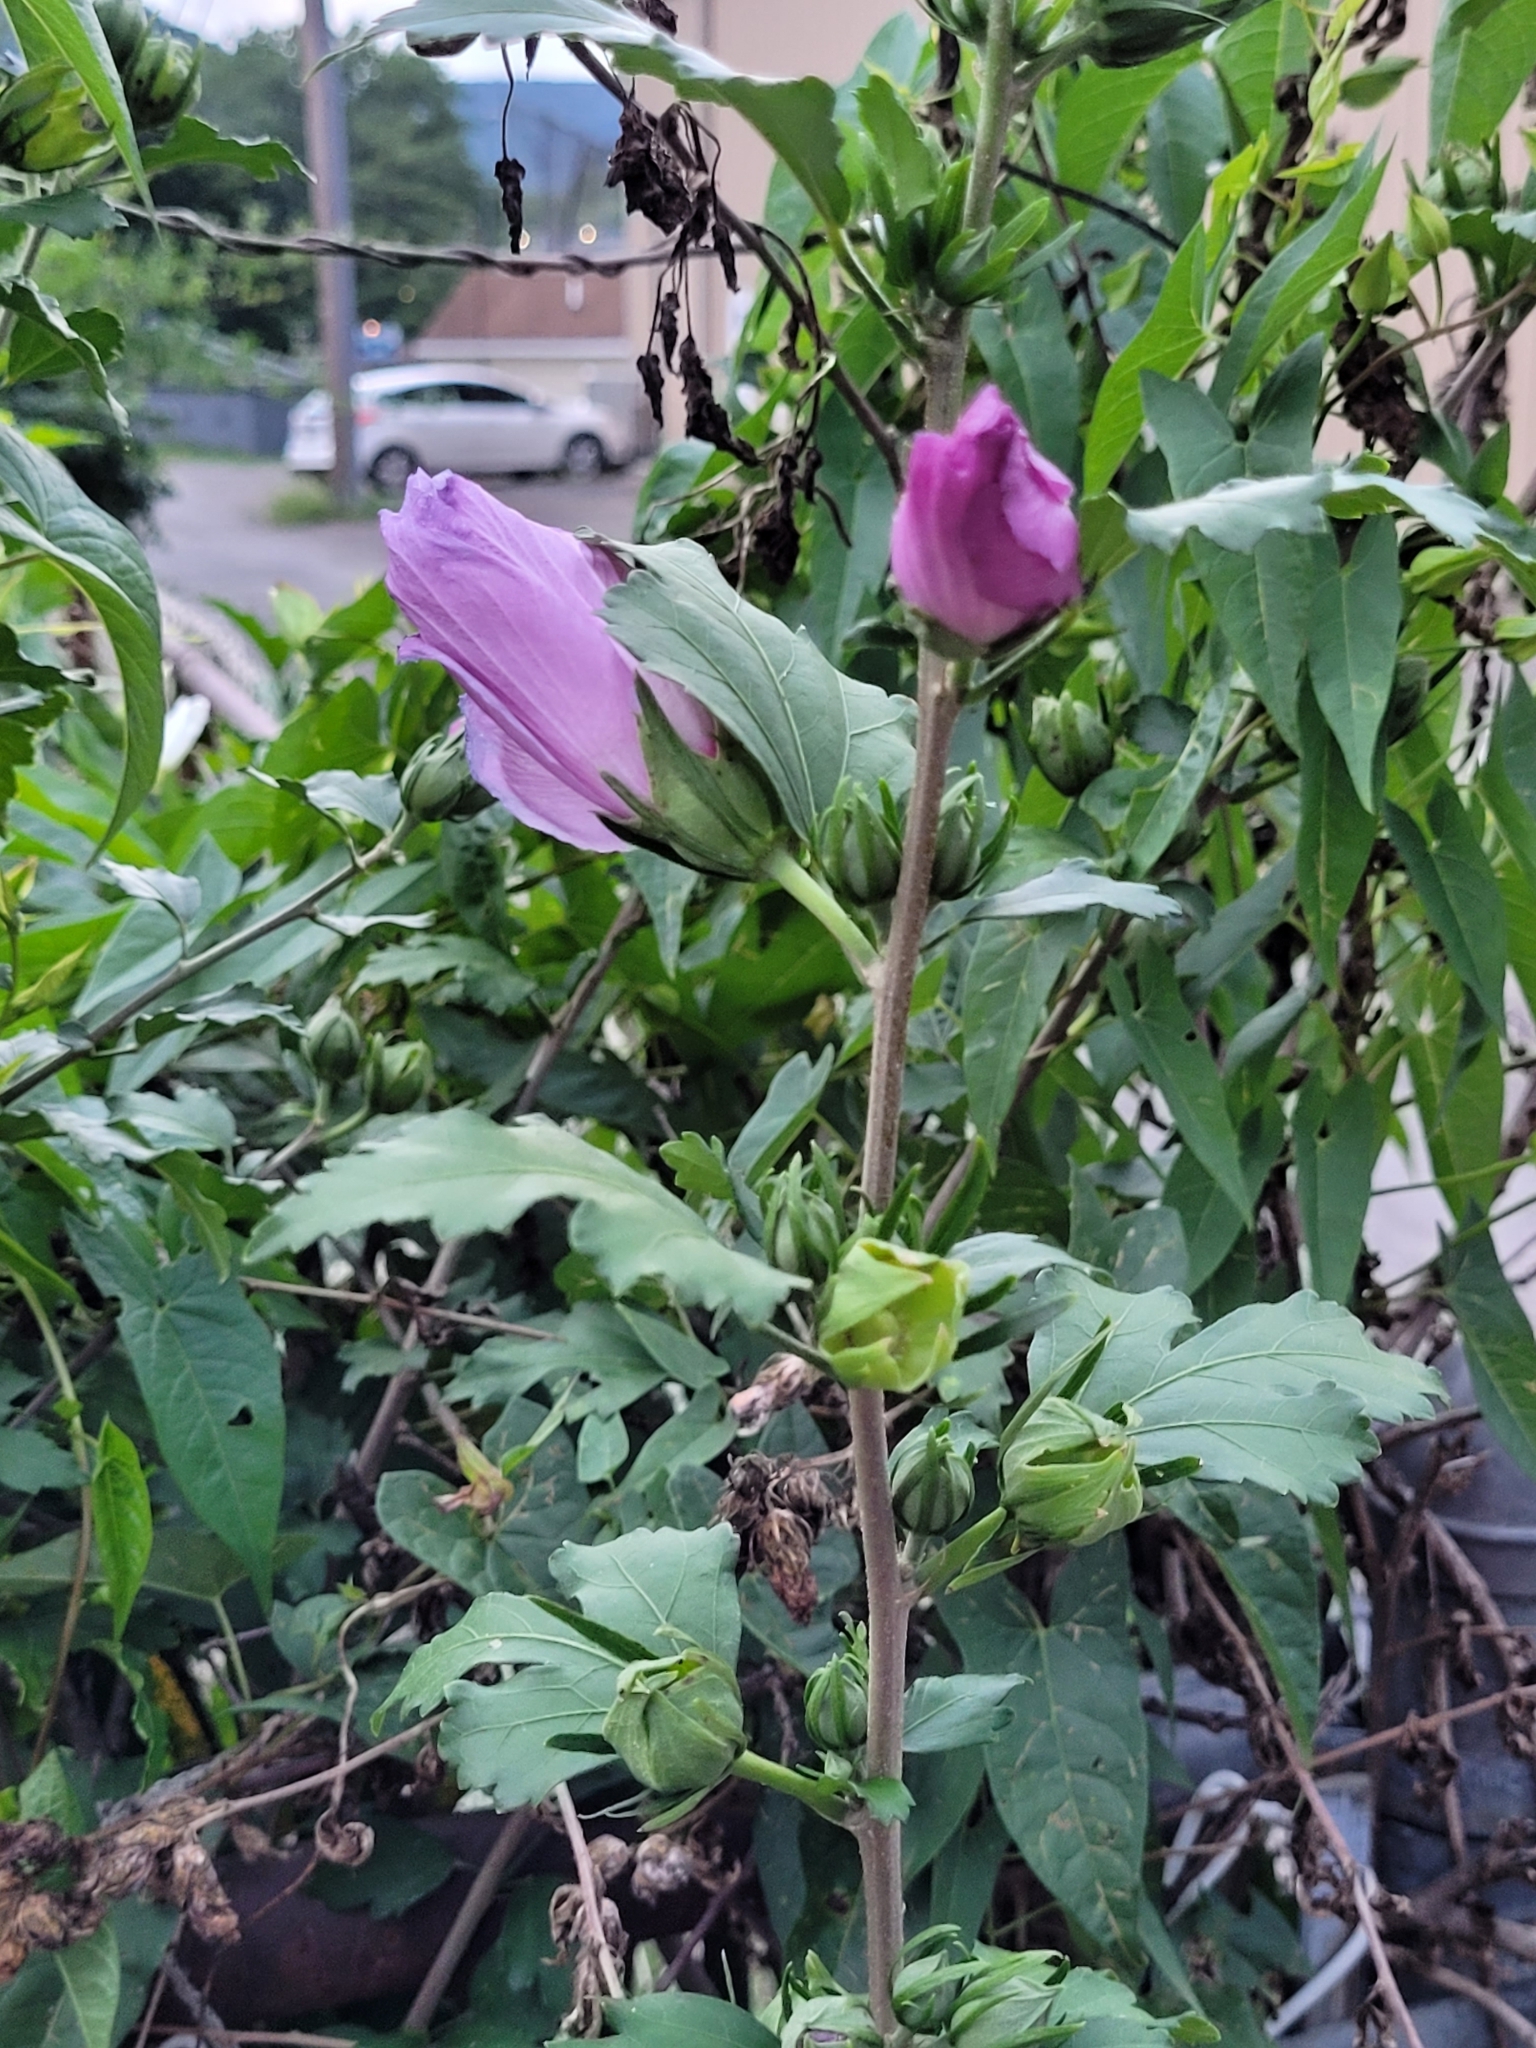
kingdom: Plantae
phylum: Tracheophyta
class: Magnoliopsida
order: Malvales
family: Malvaceae
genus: Hibiscus
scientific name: Hibiscus syriacus
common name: Syrian ketmia
